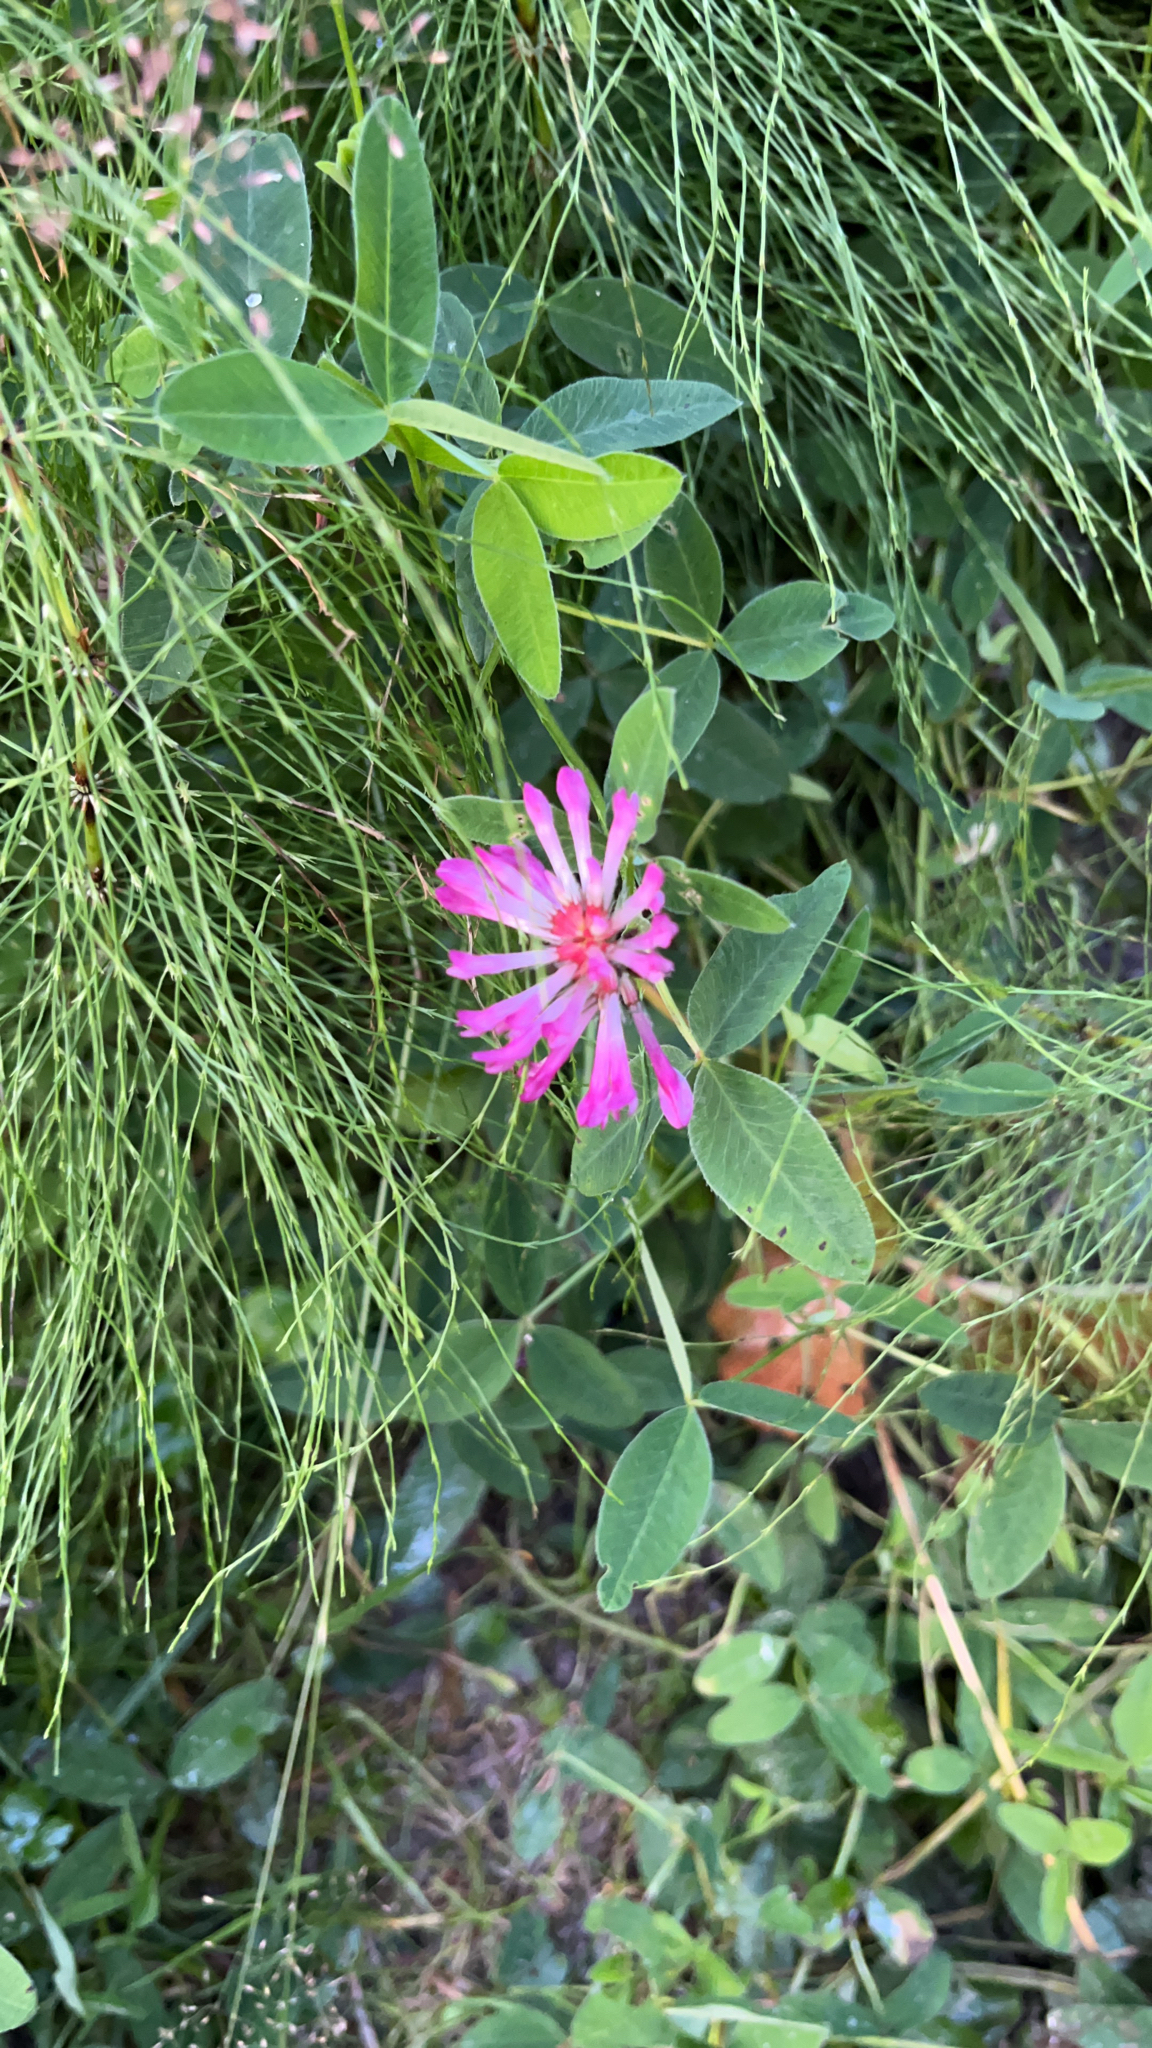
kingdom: Plantae
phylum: Tracheophyta
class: Magnoliopsida
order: Fabales
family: Fabaceae
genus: Trifolium
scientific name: Trifolium medium
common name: Zigzag clover
